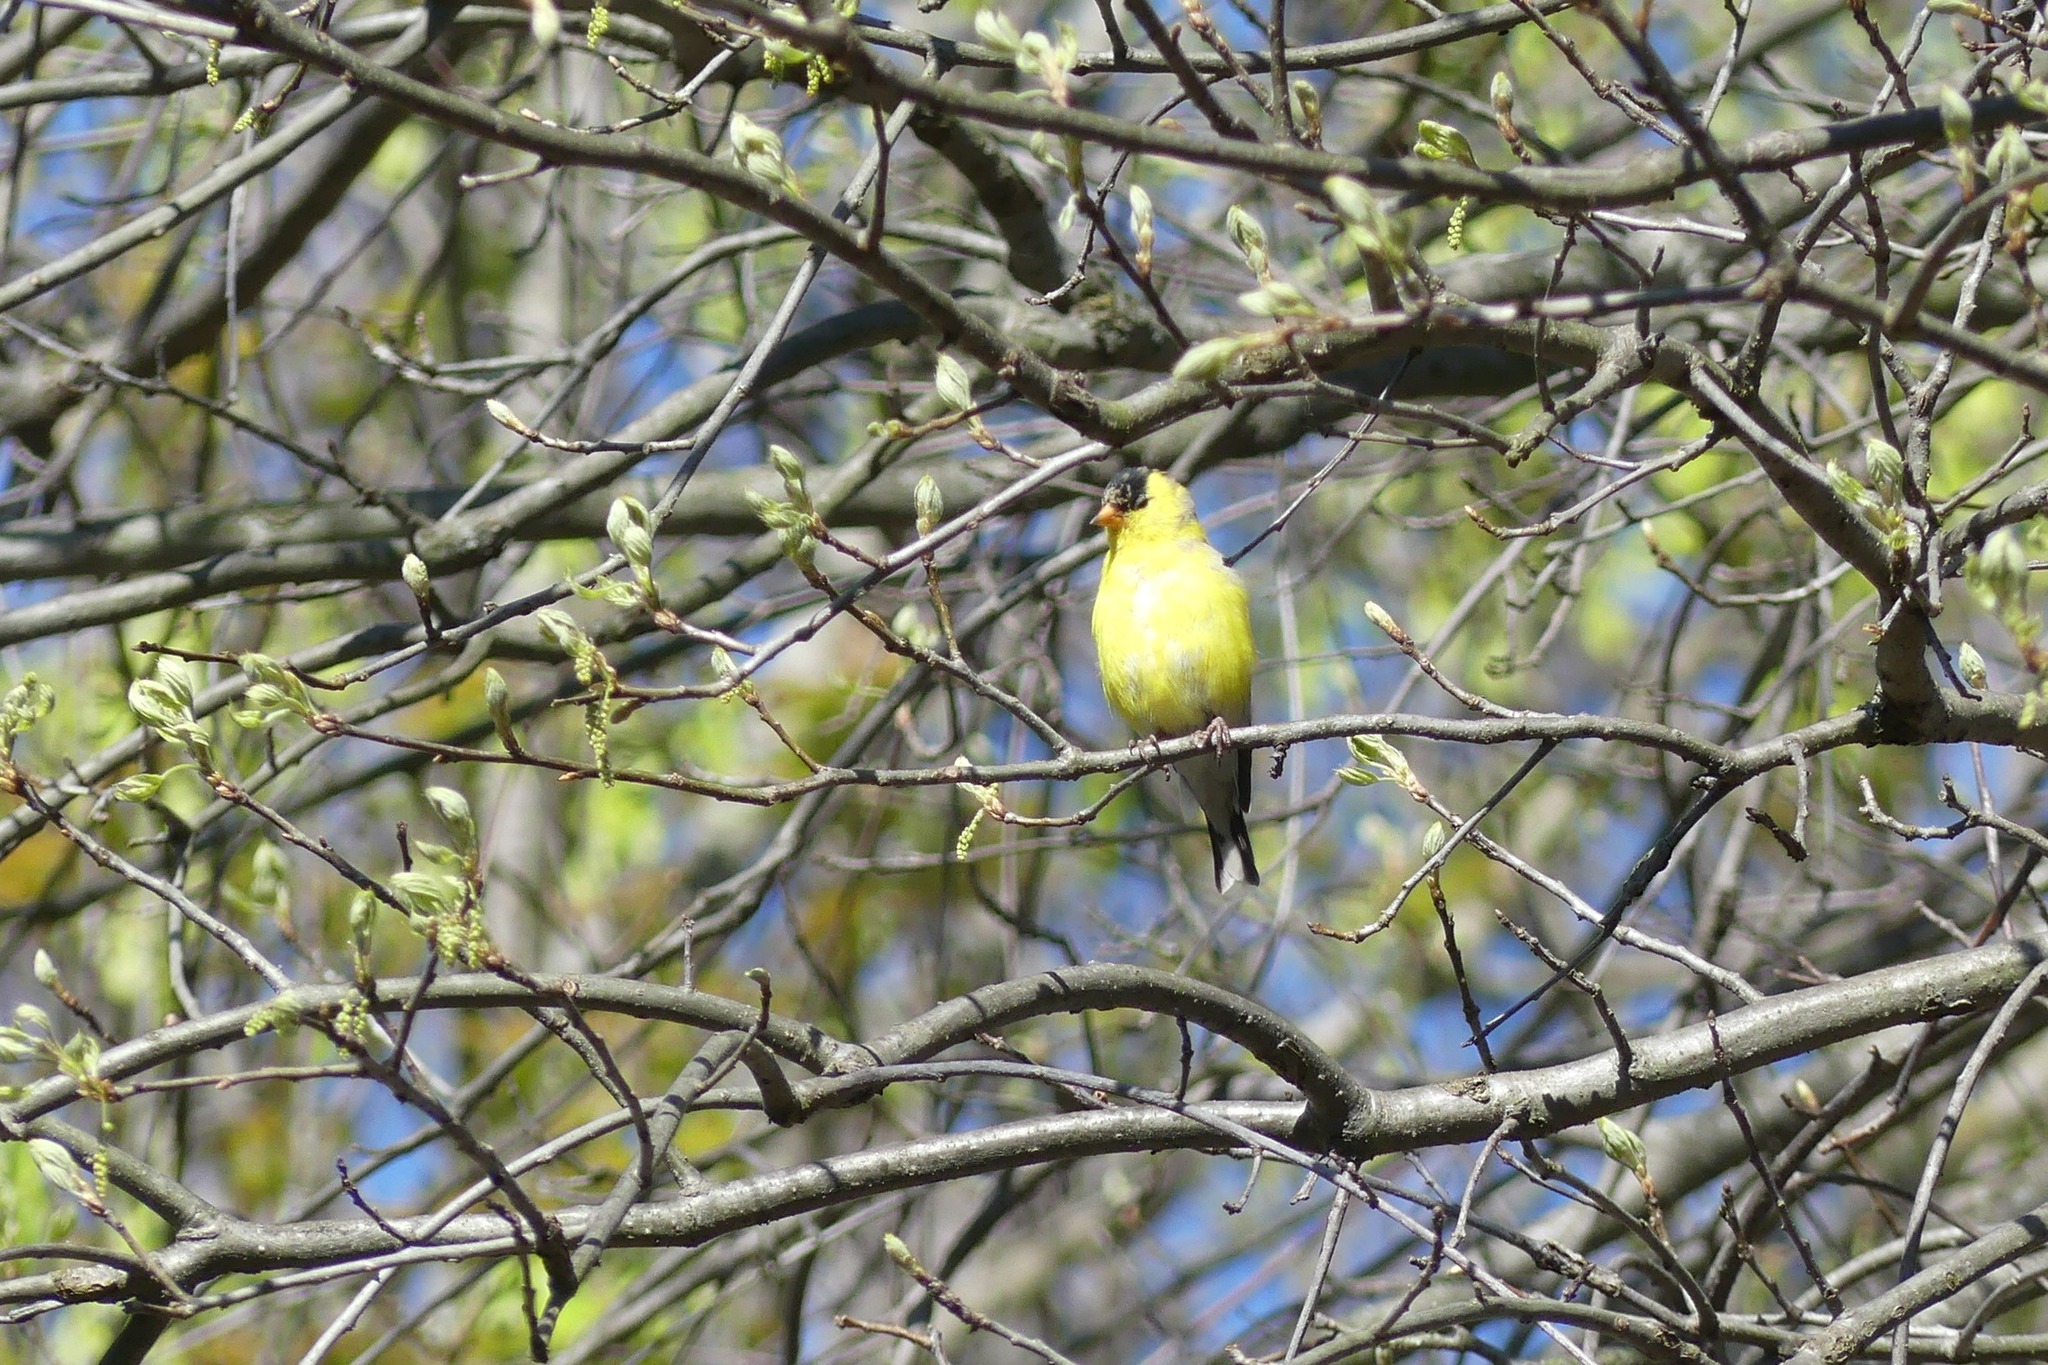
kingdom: Animalia
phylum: Chordata
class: Aves
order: Passeriformes
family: Fringillidae
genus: Spinus
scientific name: Spinus tristis
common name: American goldfinch
